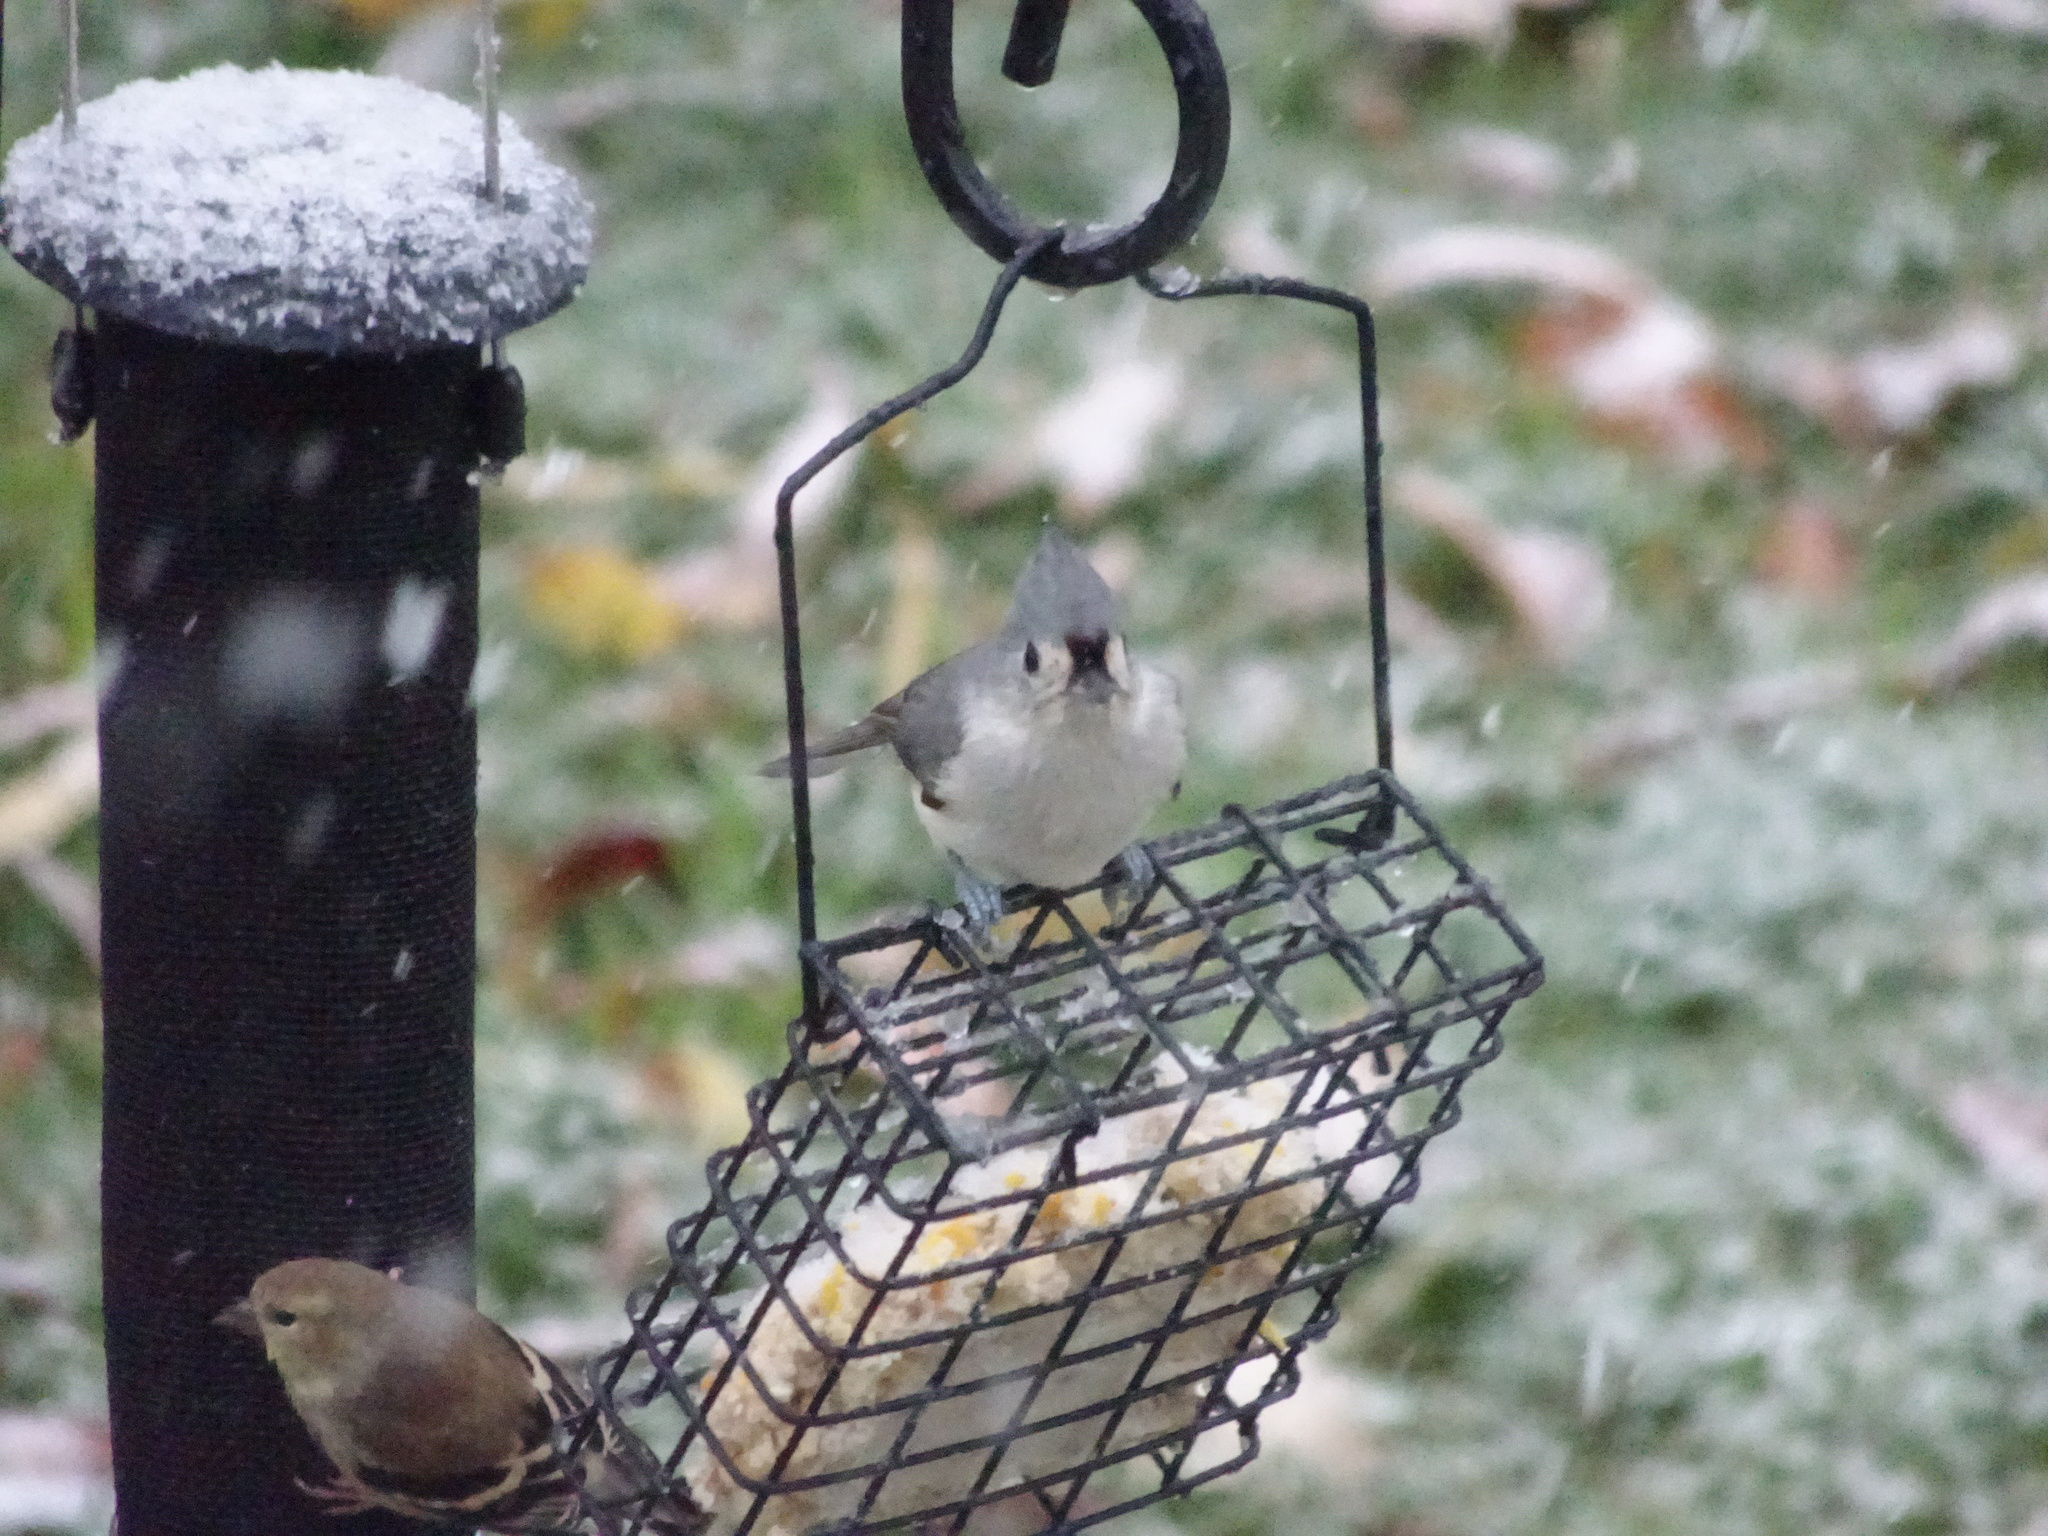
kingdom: Animalia
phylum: Chordata
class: Aves
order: Passeriformes
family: Paridae
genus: Baeolophus
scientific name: Baeolophus bicolor
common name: Tufted titmouse
